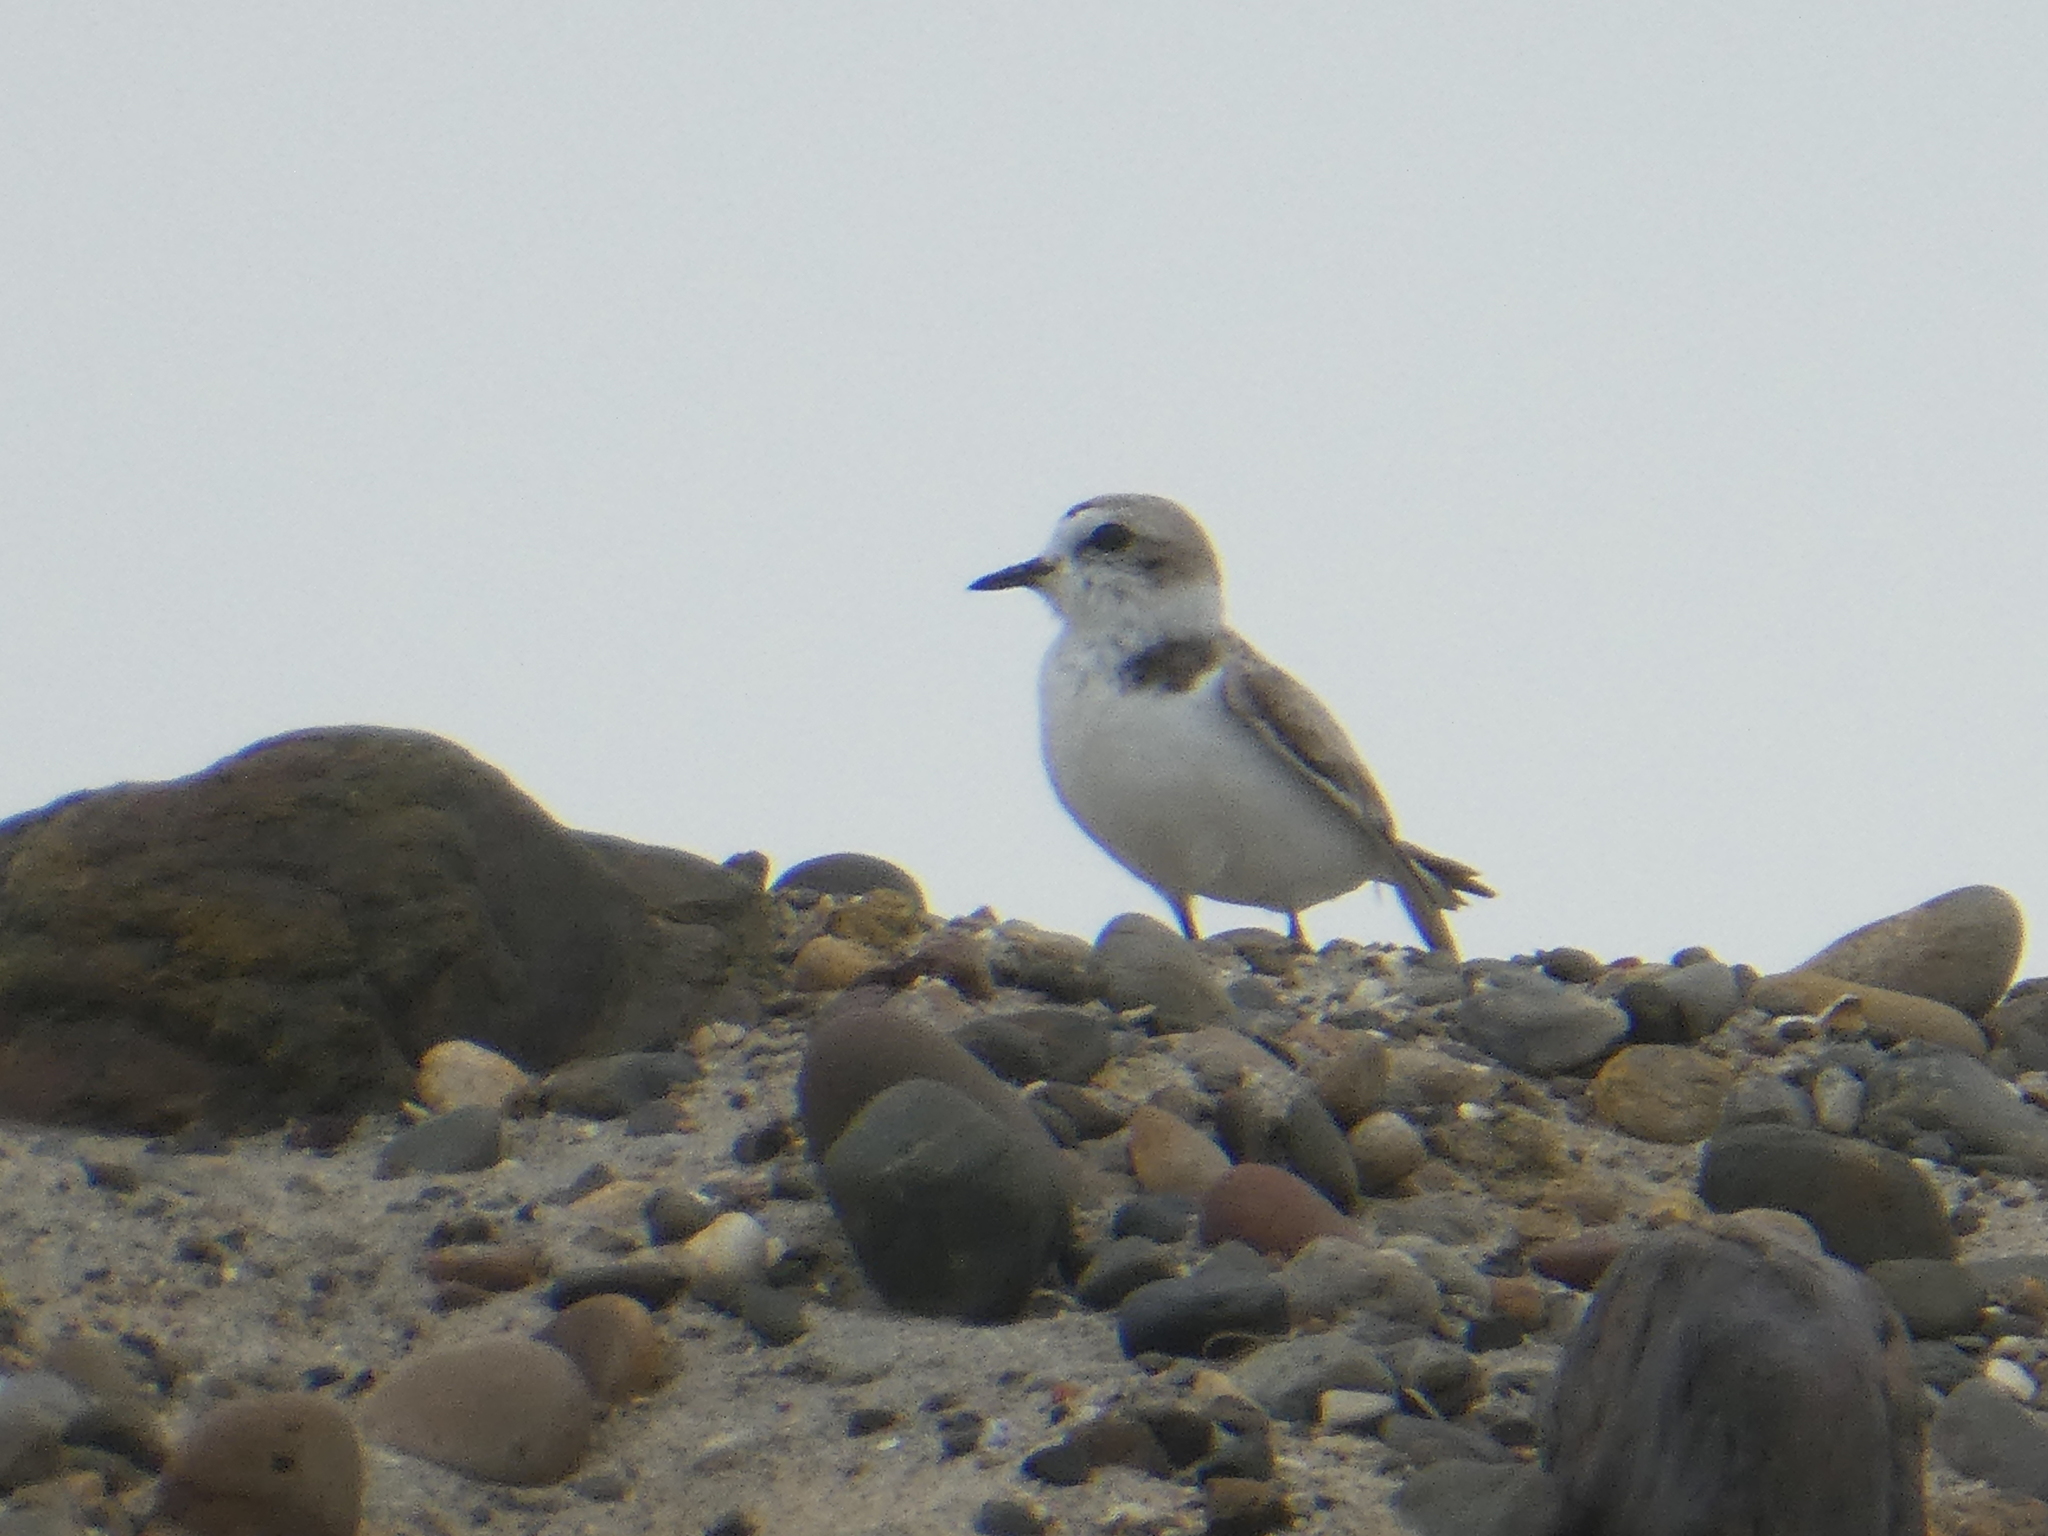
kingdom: Animalia
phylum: Chordata
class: Aves
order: Charadriiformes
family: Charadriidae
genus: Anarhynchus
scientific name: Anarhynchus
